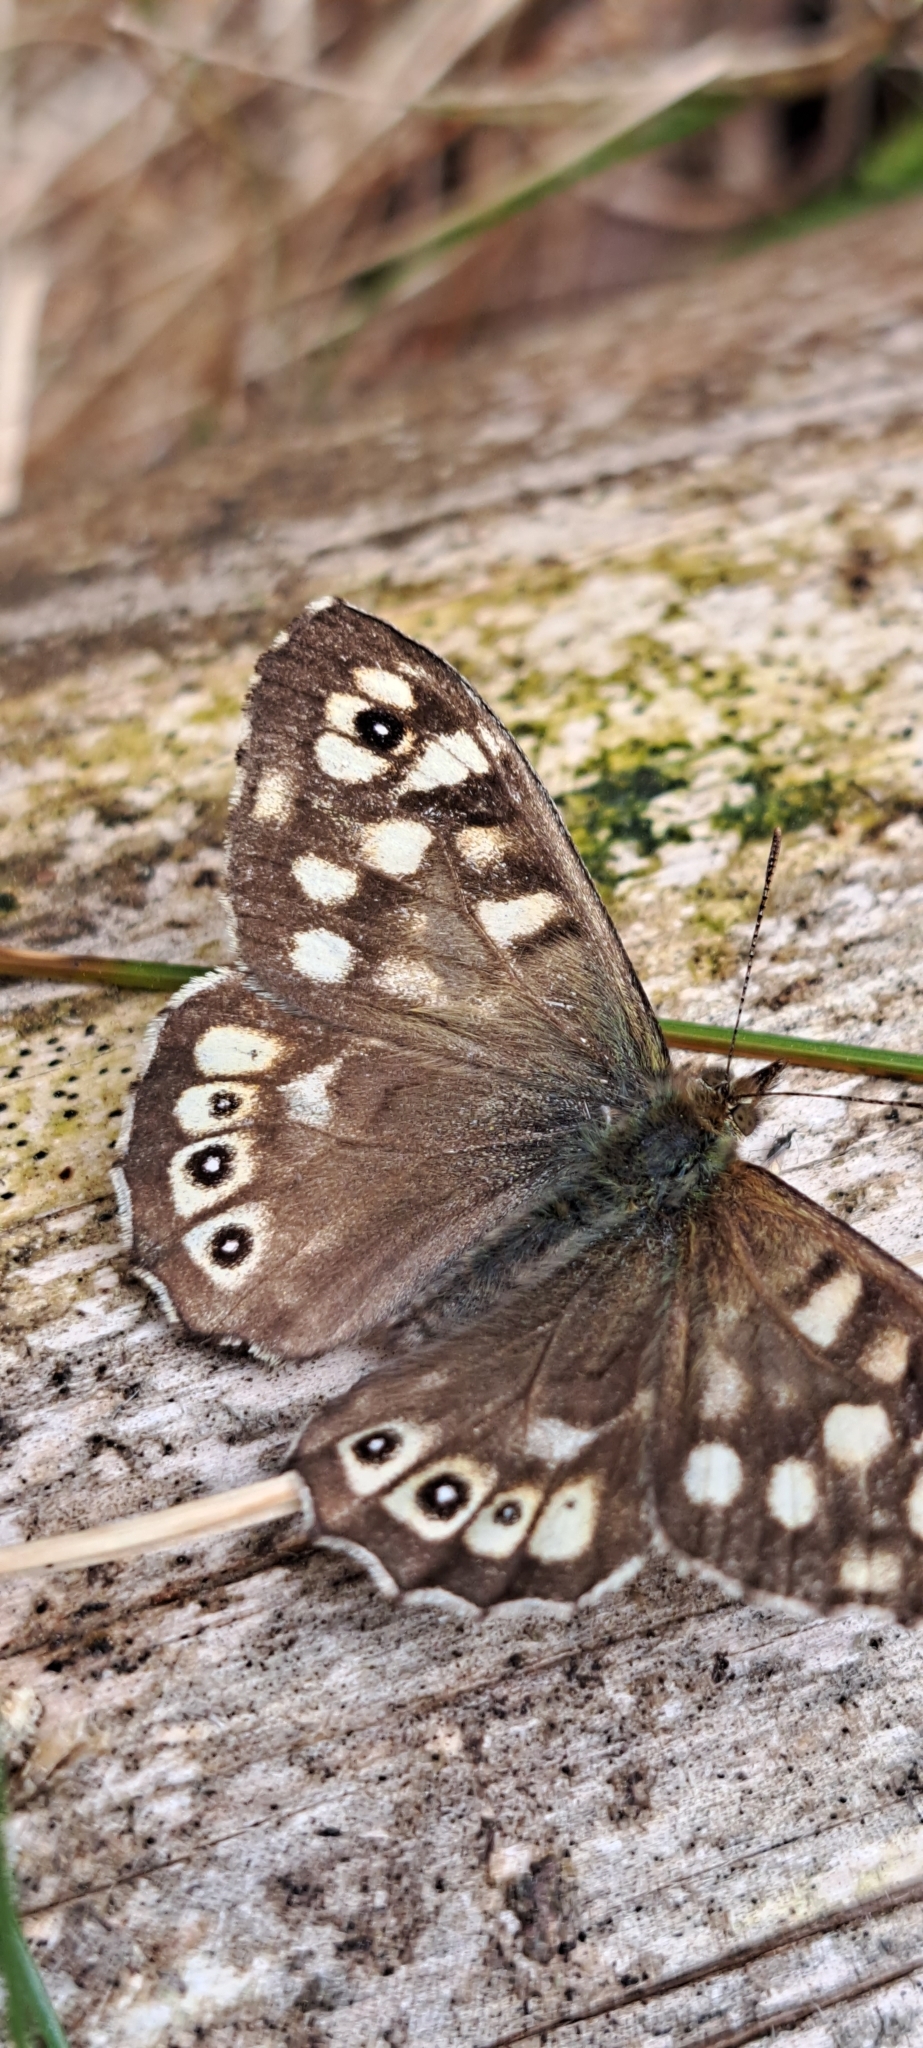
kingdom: Animalia
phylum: Arthropoda
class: Insecta
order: Lepidoptera
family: Nymphalidae
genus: Pararge
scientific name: Pararge aegeria
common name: Speckled wood
